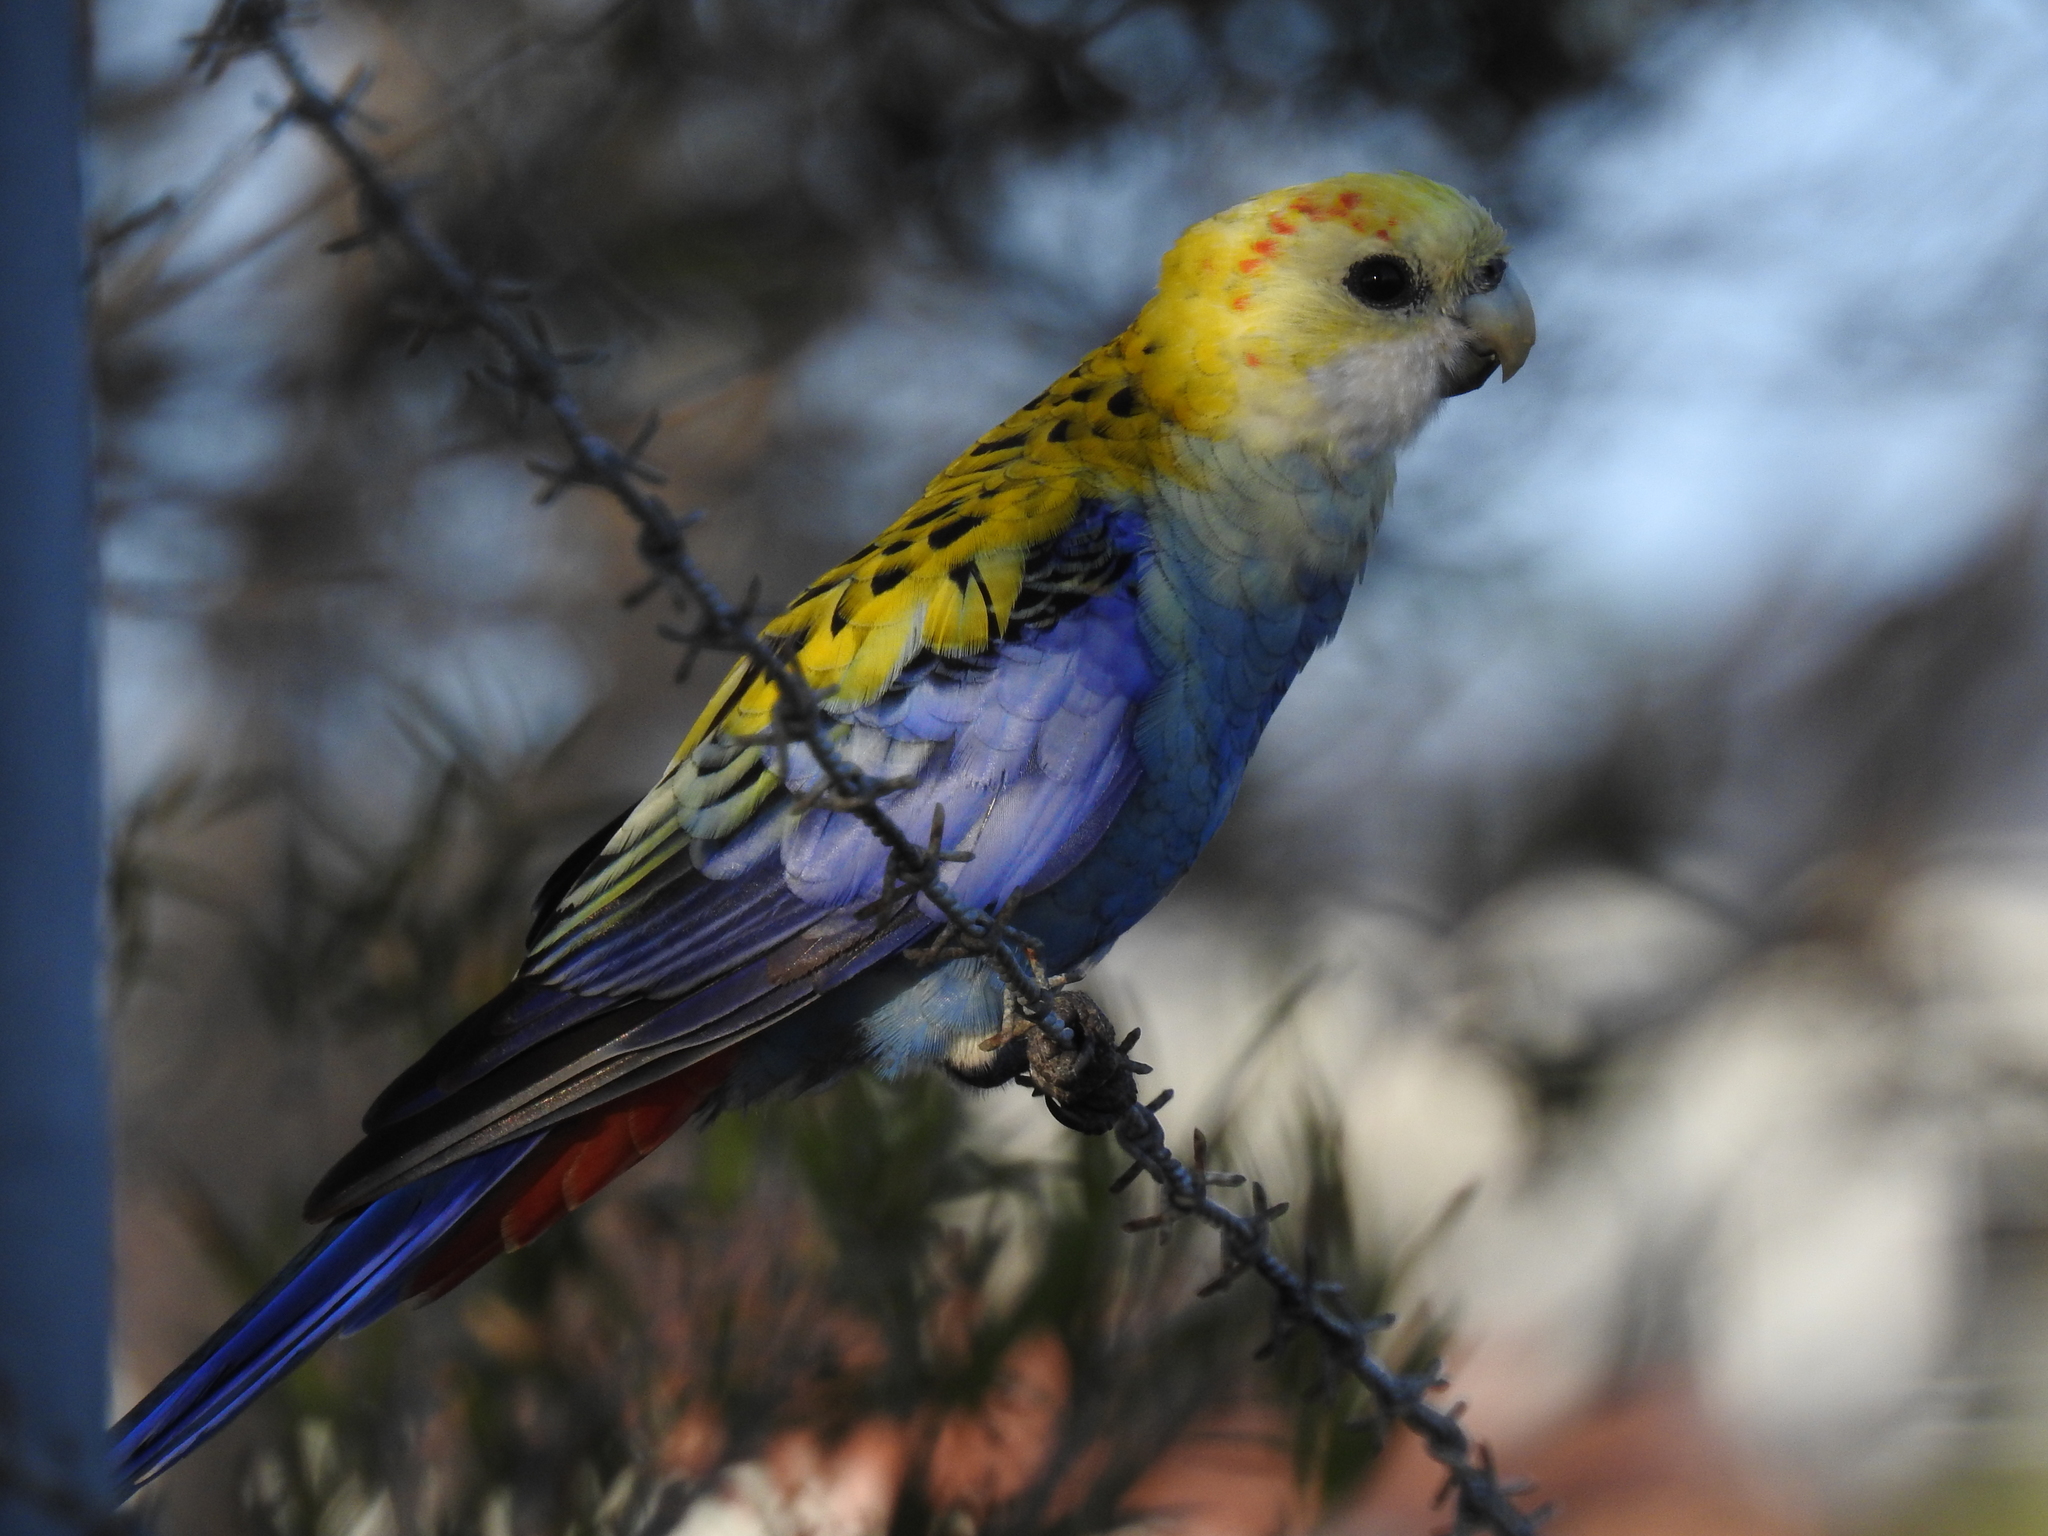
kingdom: Animalia
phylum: Chordata
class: Aves
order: Psittaciformes
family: Psittacidae
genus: Platycercus
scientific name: Platycercus adscitus
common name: Pale-headed rosella
